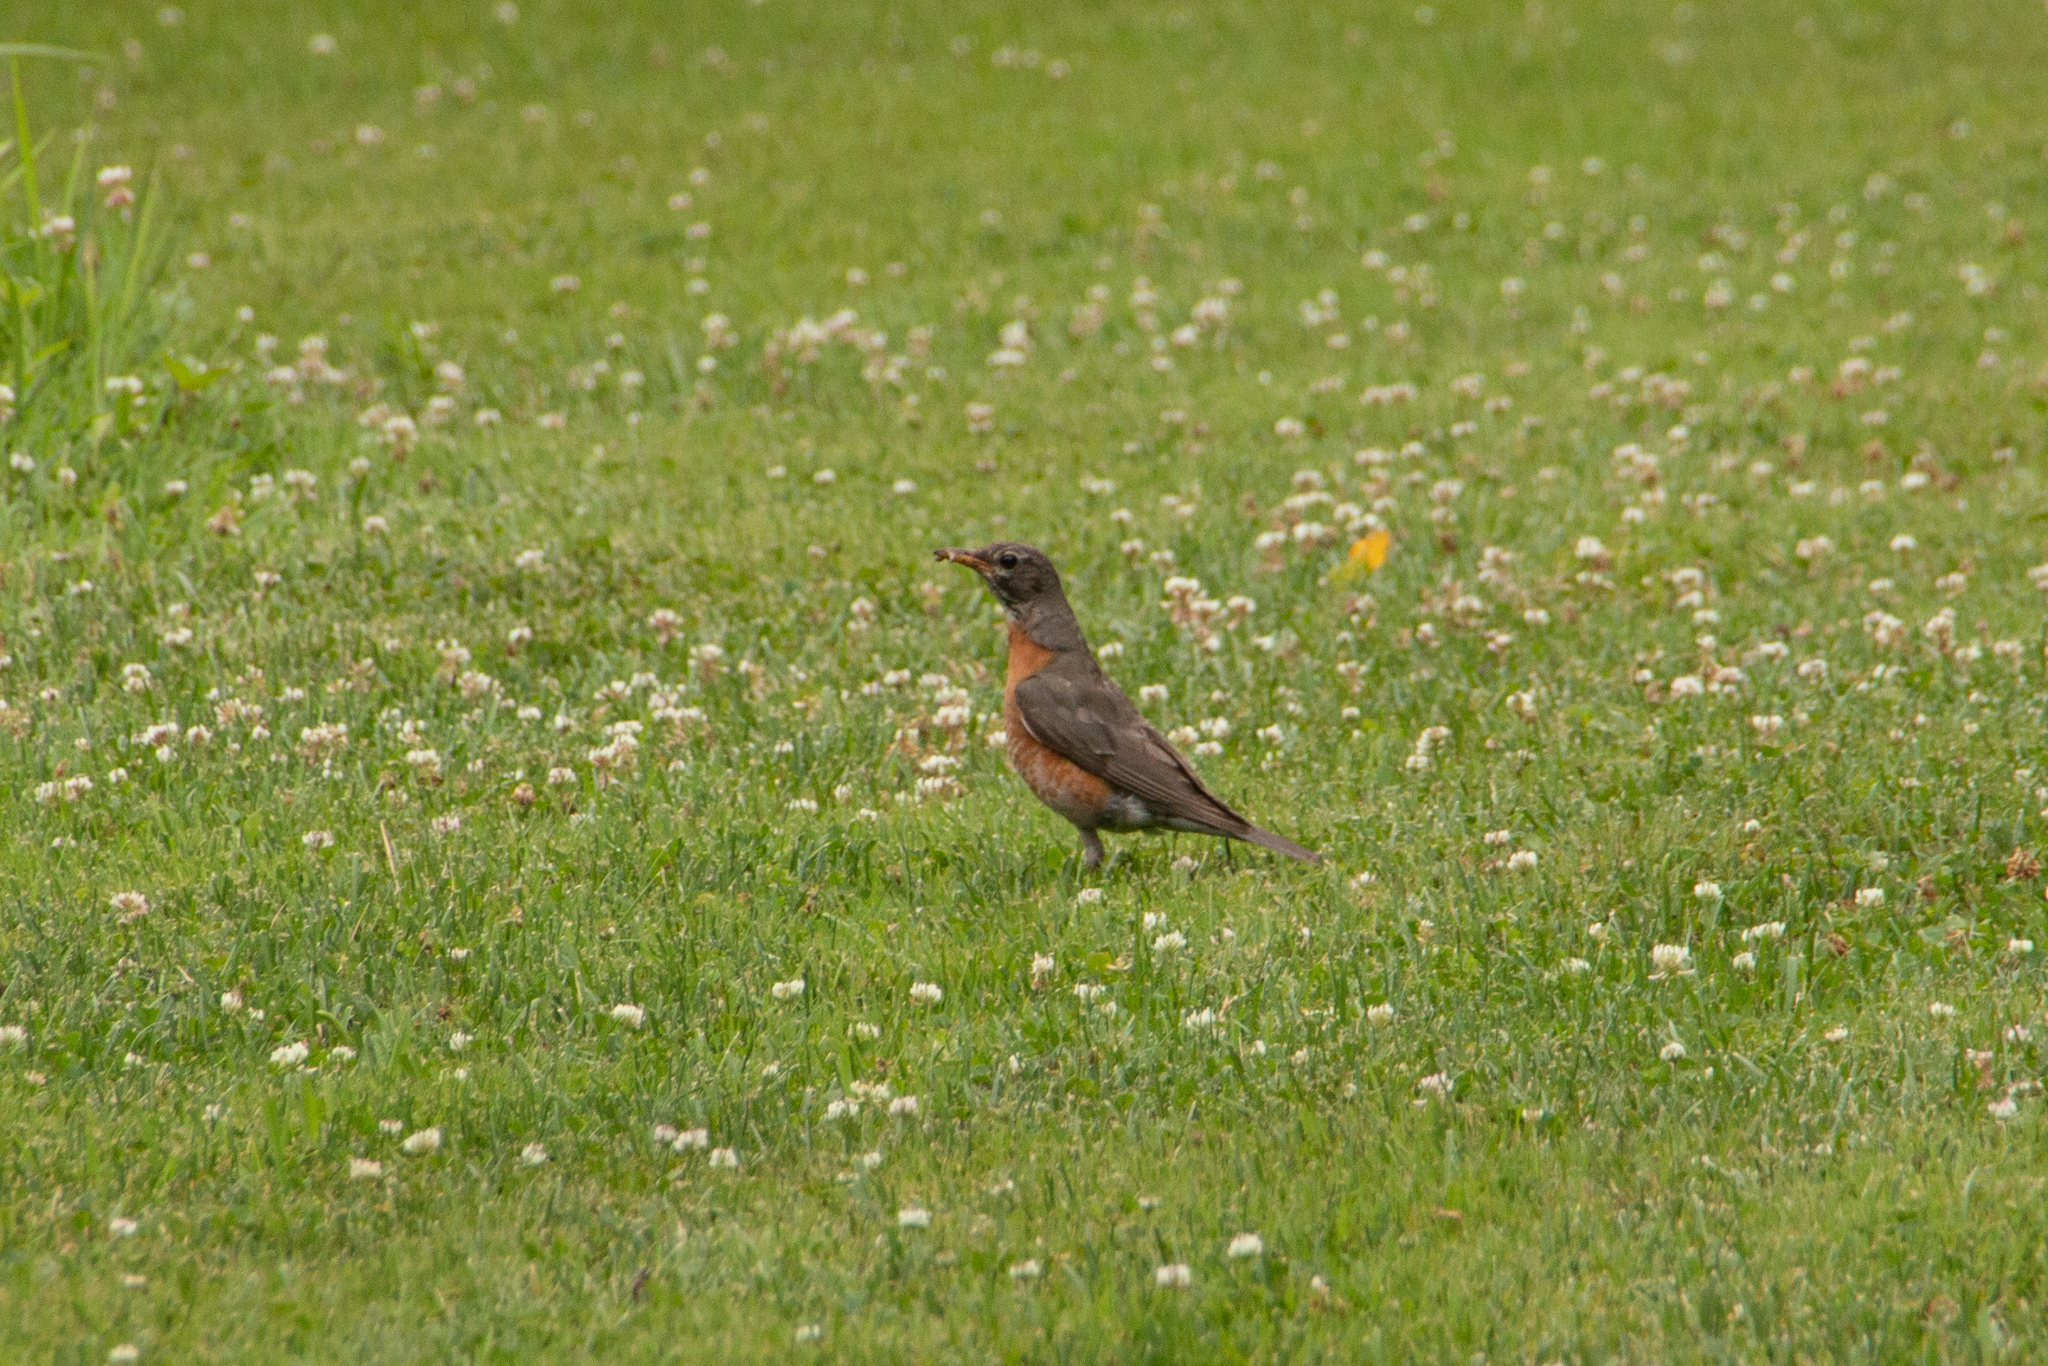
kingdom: Animalia
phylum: Chordata
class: Aves
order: Passeriformes
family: Turdidae
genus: Turdus
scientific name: Turdus migratorius
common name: American robin
